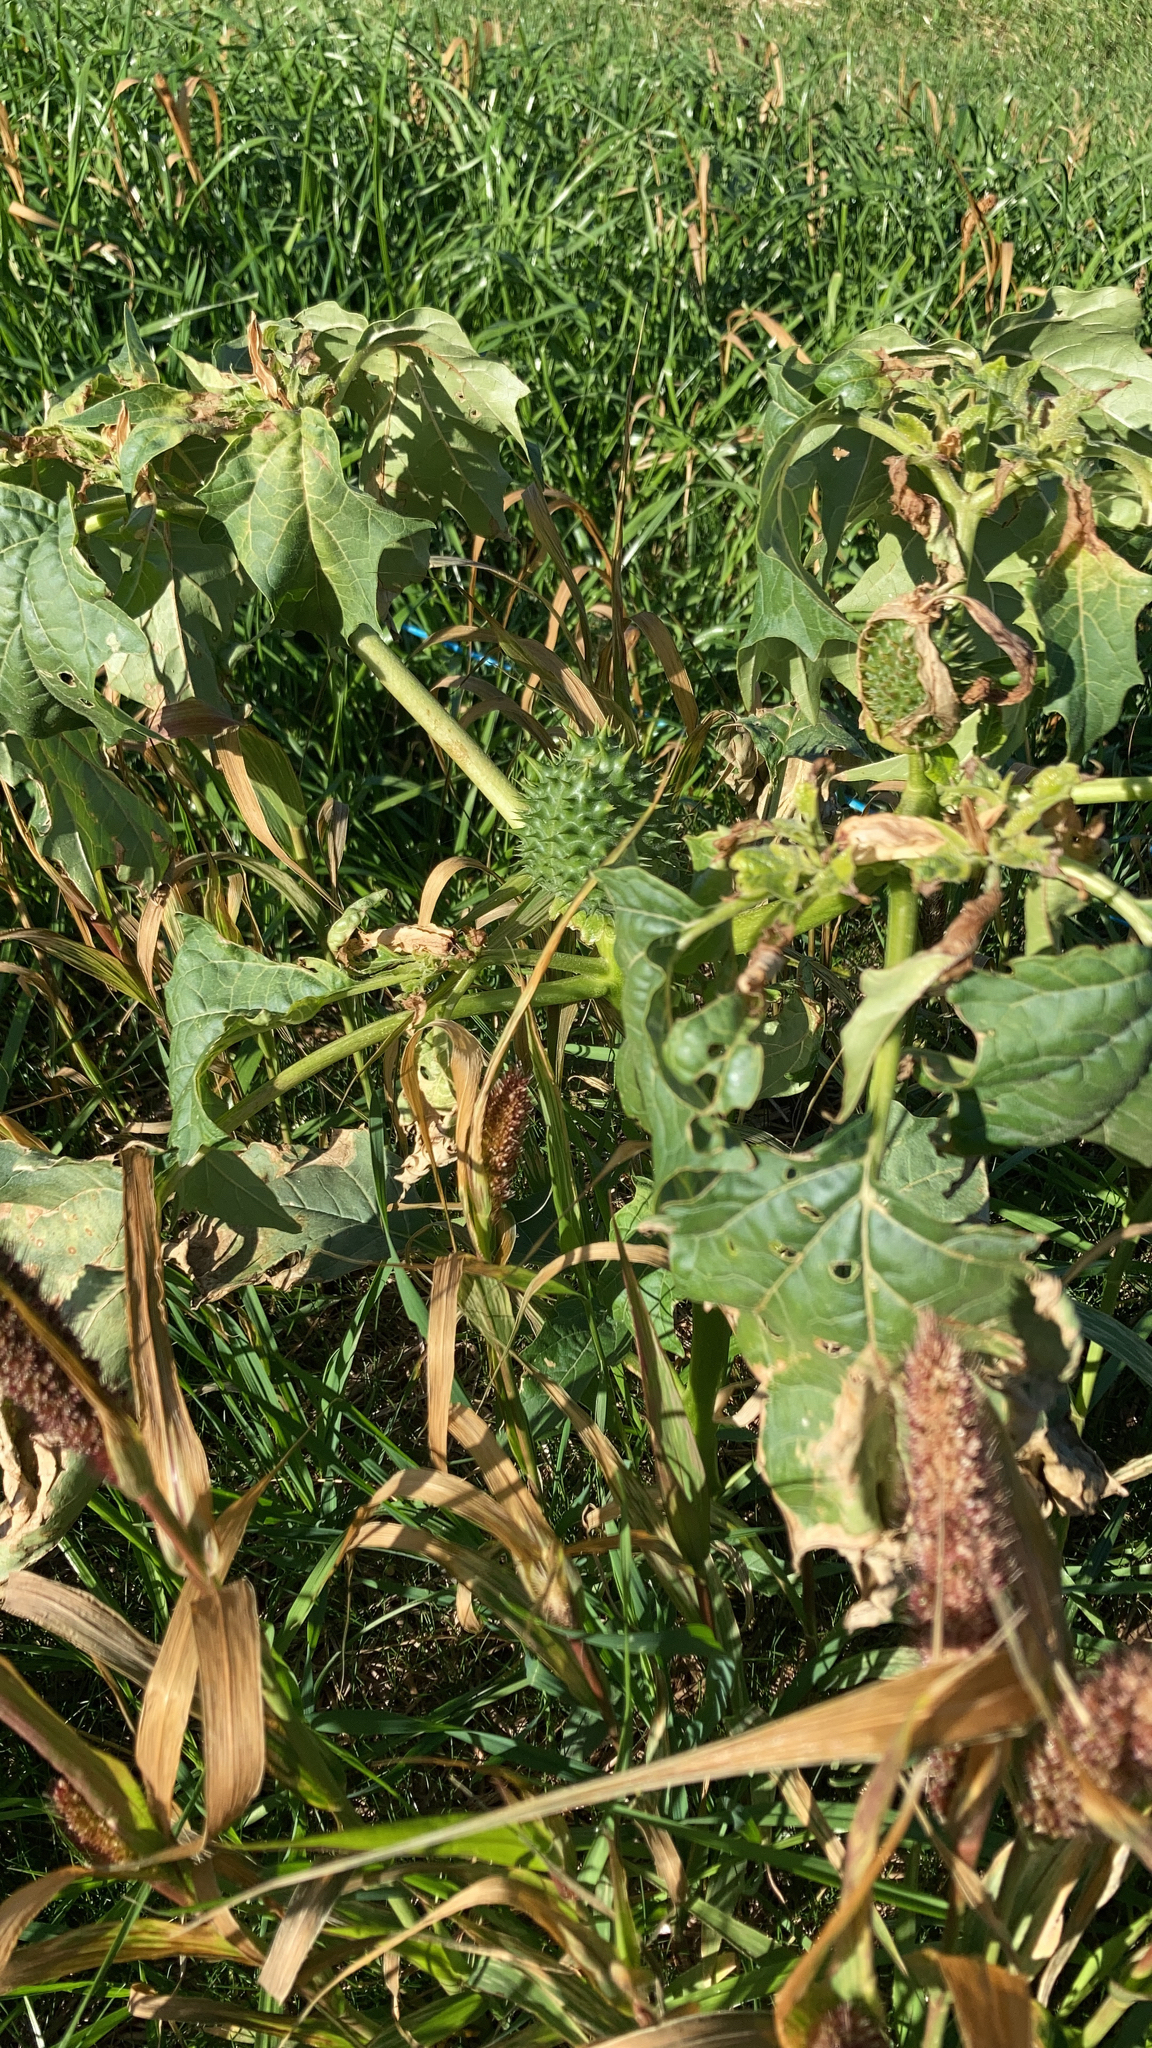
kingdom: Plantae
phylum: Tracheophyta
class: Magnoliopsida
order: Solanales
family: Solanaceae
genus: Datura
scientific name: Datura stramonium
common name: Thorn-apple
